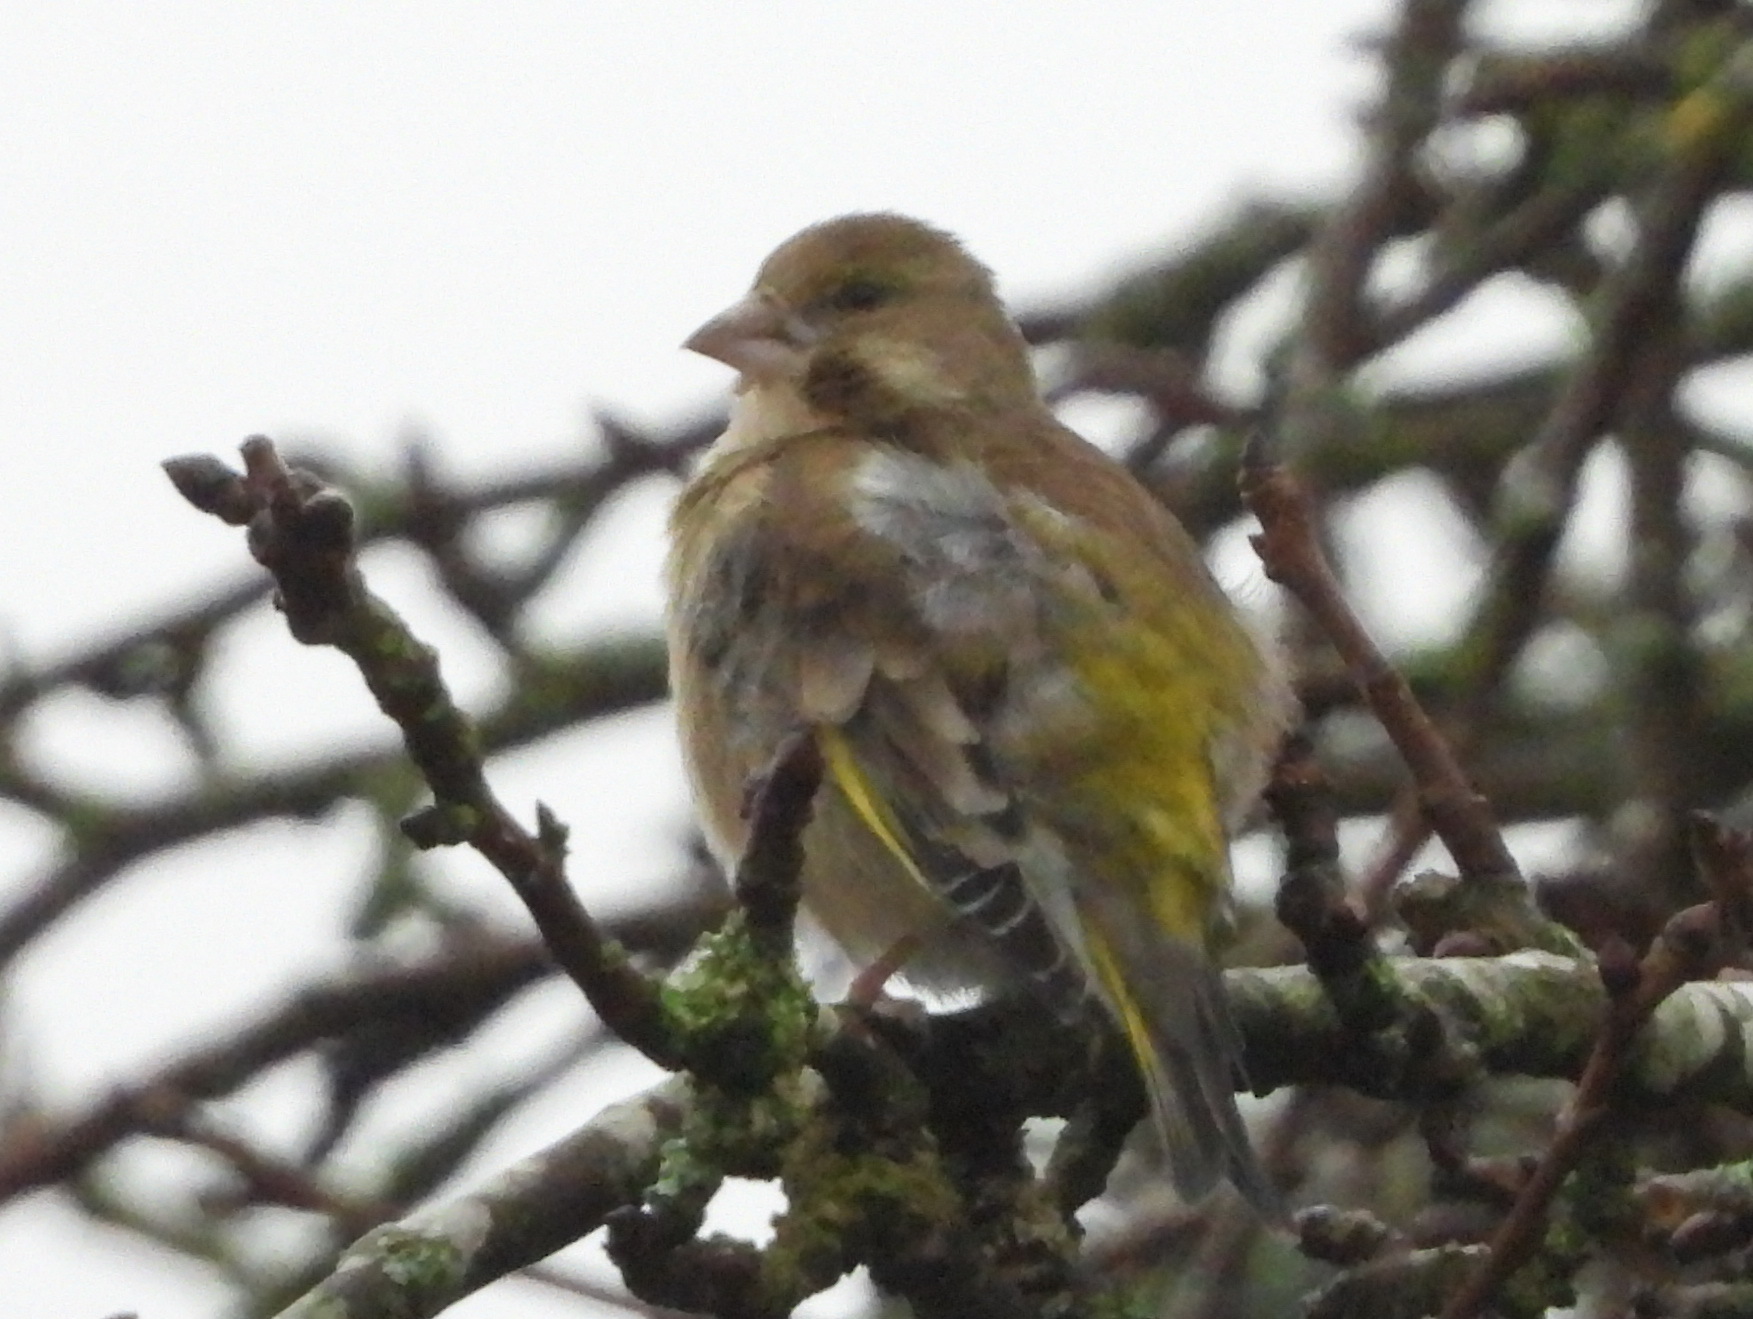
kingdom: Plantae
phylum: Tracheophyta
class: Liliopsida
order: Poales
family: Poaceae
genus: Chloris
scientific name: Chloris chloris
